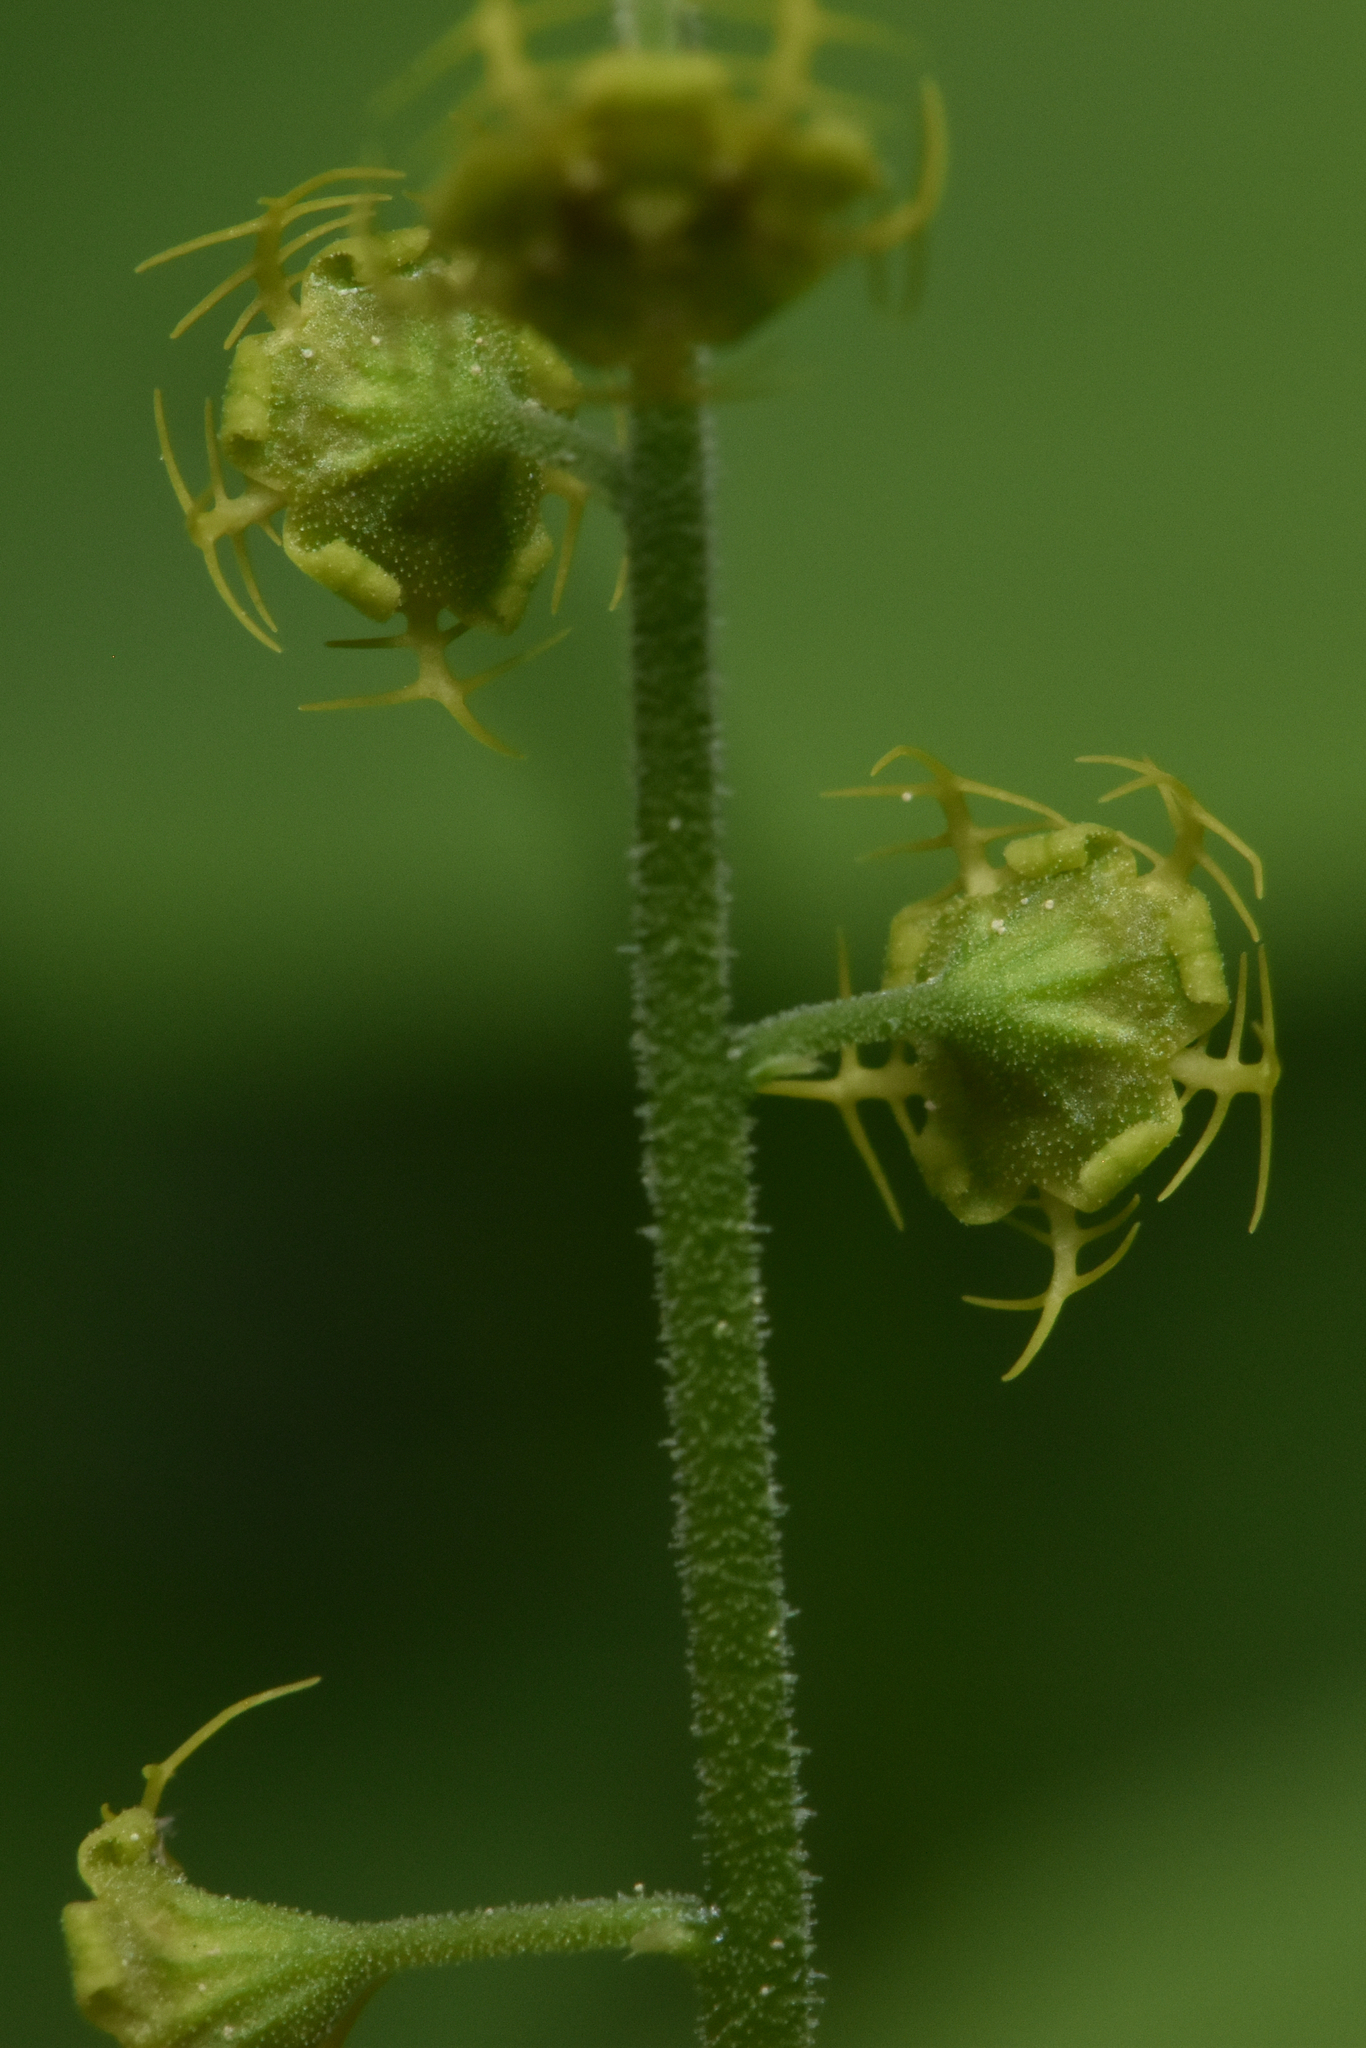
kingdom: Plantae
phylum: Tracheophyta
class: Magnoliopsida
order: Saxifragales
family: Saxifragaceae
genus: Pectiantia
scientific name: Pectiantia pentandra
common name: Alpine bishop's-cap
